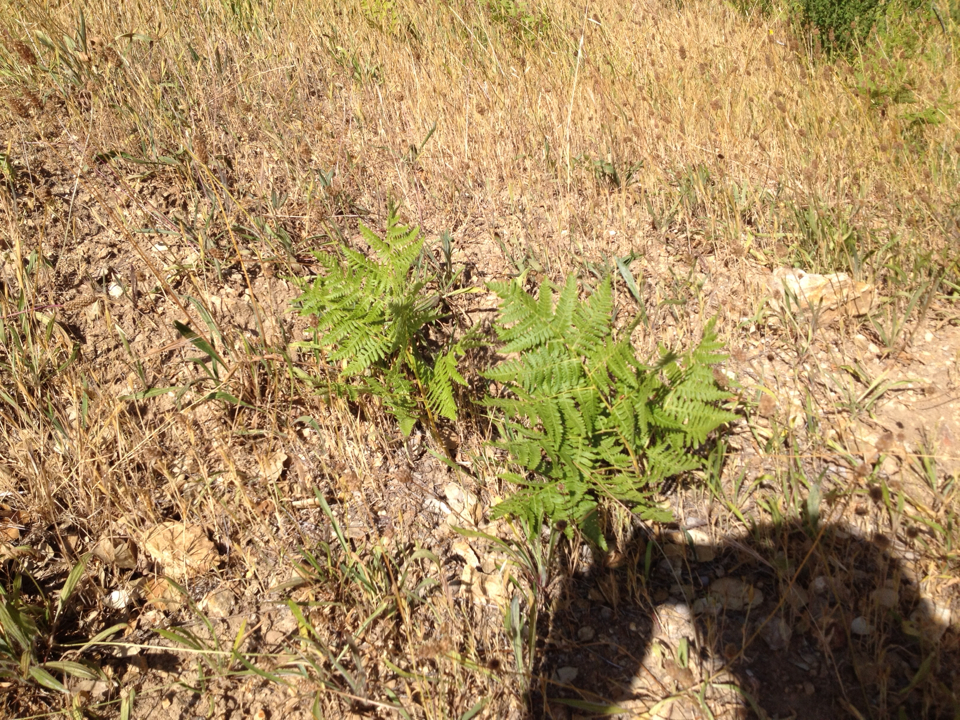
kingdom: Plantae
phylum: Tracheophyta
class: Polypodiopsida
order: Polypodiales
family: Dennstaedtiaceae
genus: Pteridium
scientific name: Pteridium aquilinum
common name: Bracken
